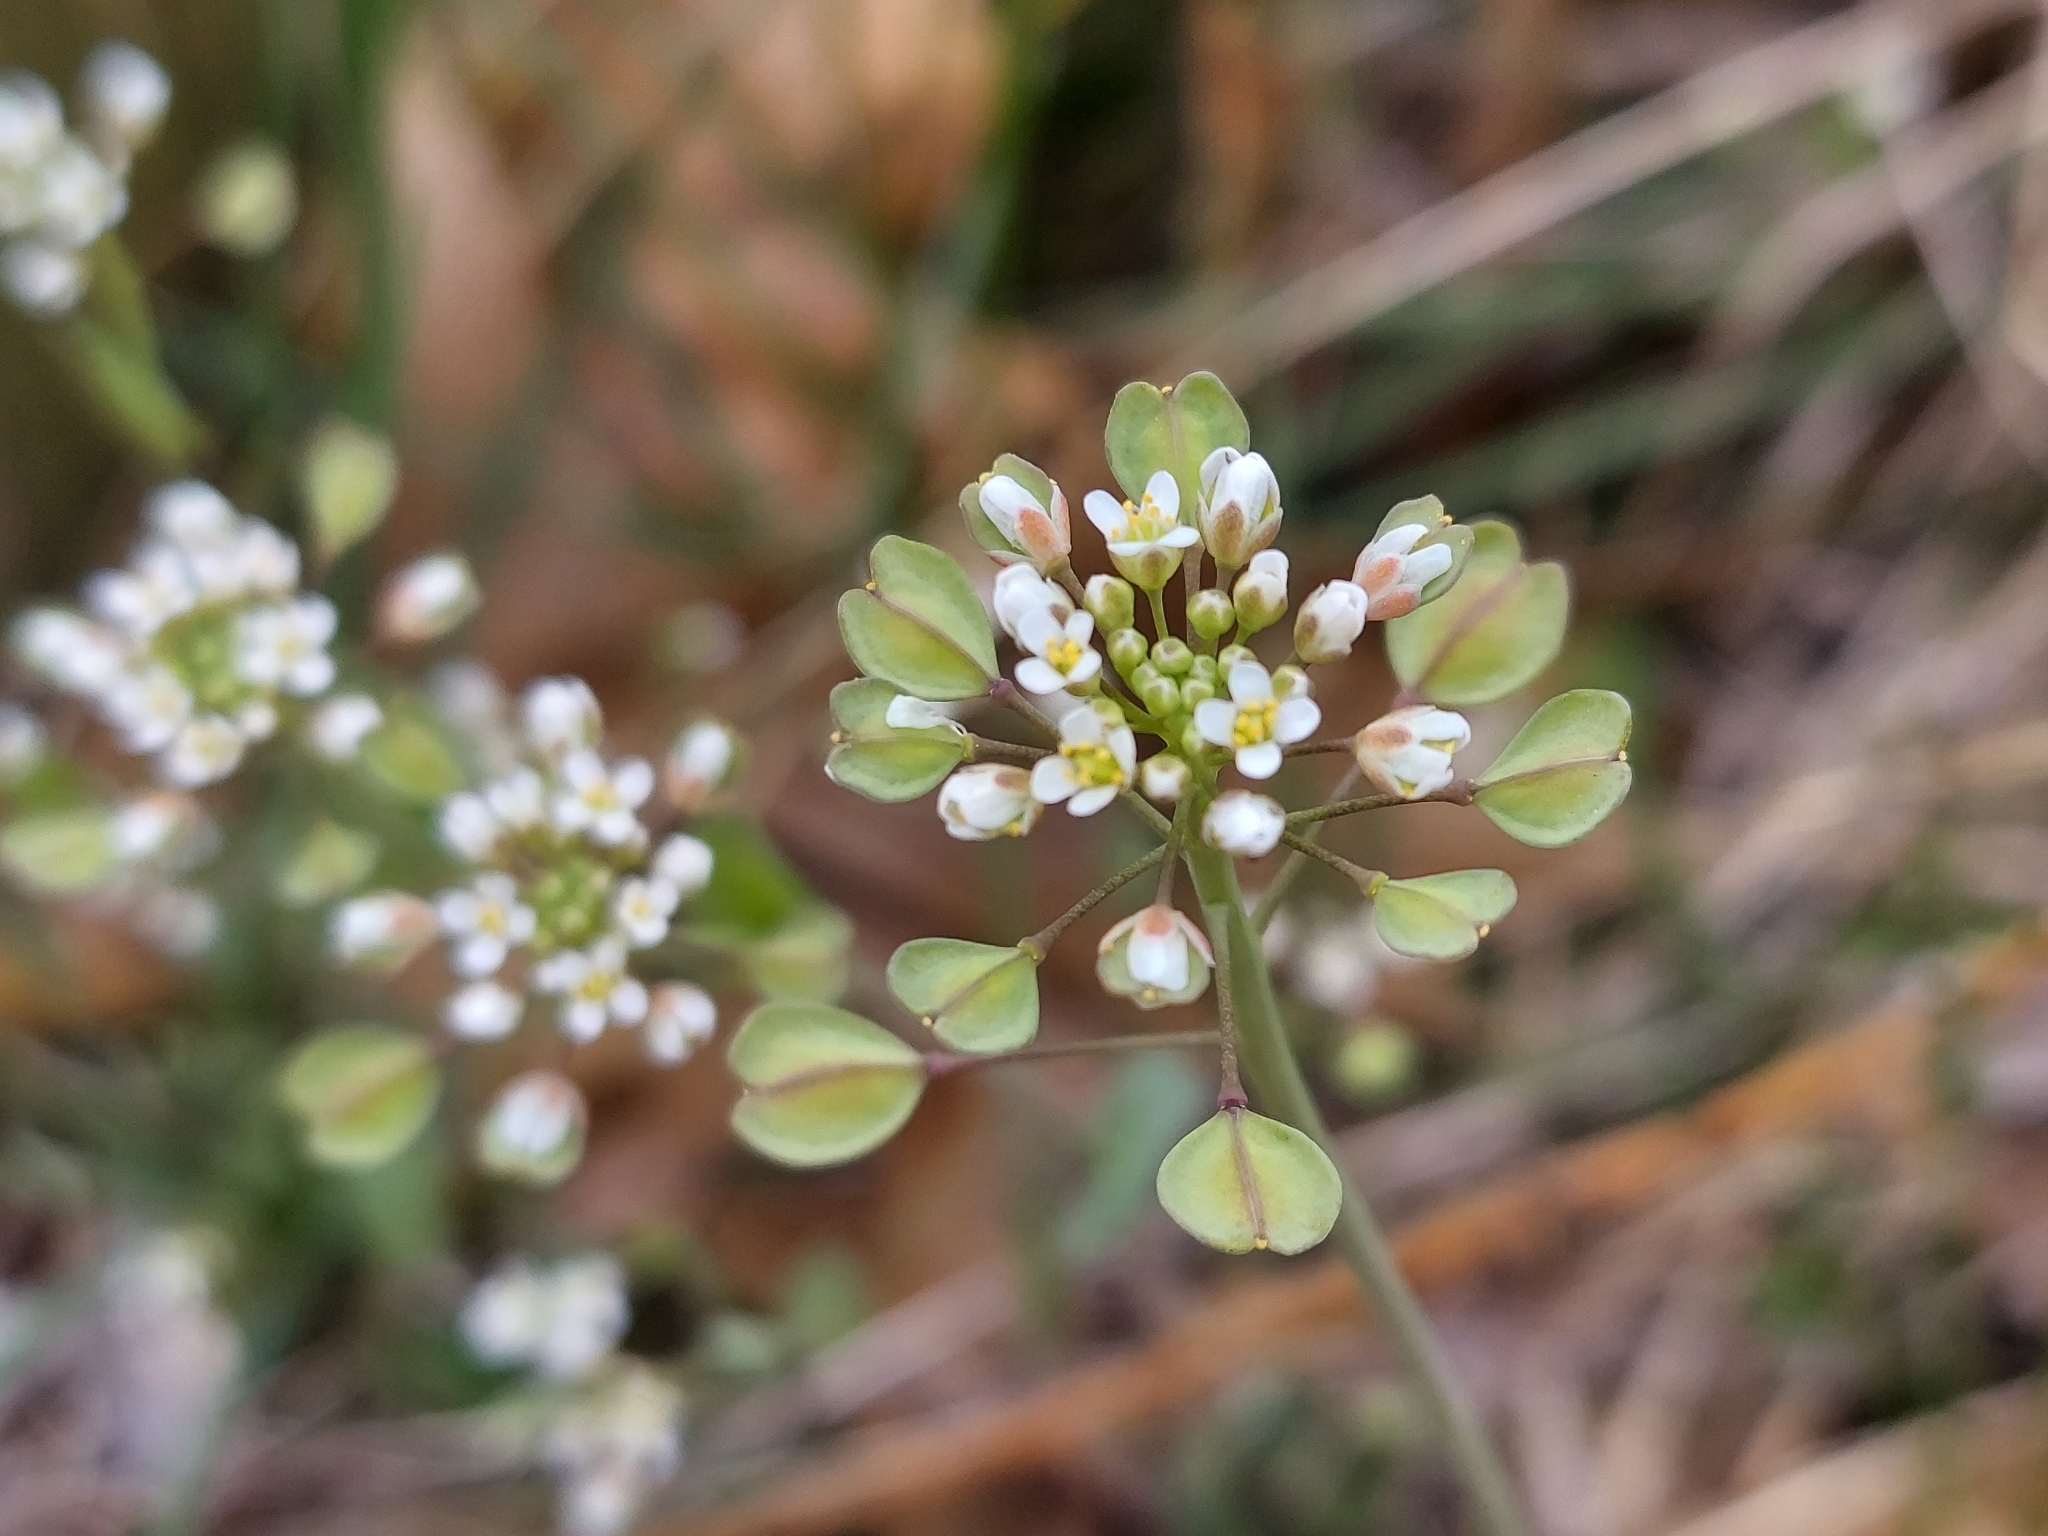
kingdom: Plantae
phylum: Tracheophyta
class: Magnoliopsida
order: Brassicales
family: Brassicaceae
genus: Noccaea
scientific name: Noccaea perfoliata
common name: Perfoliate pennycress
